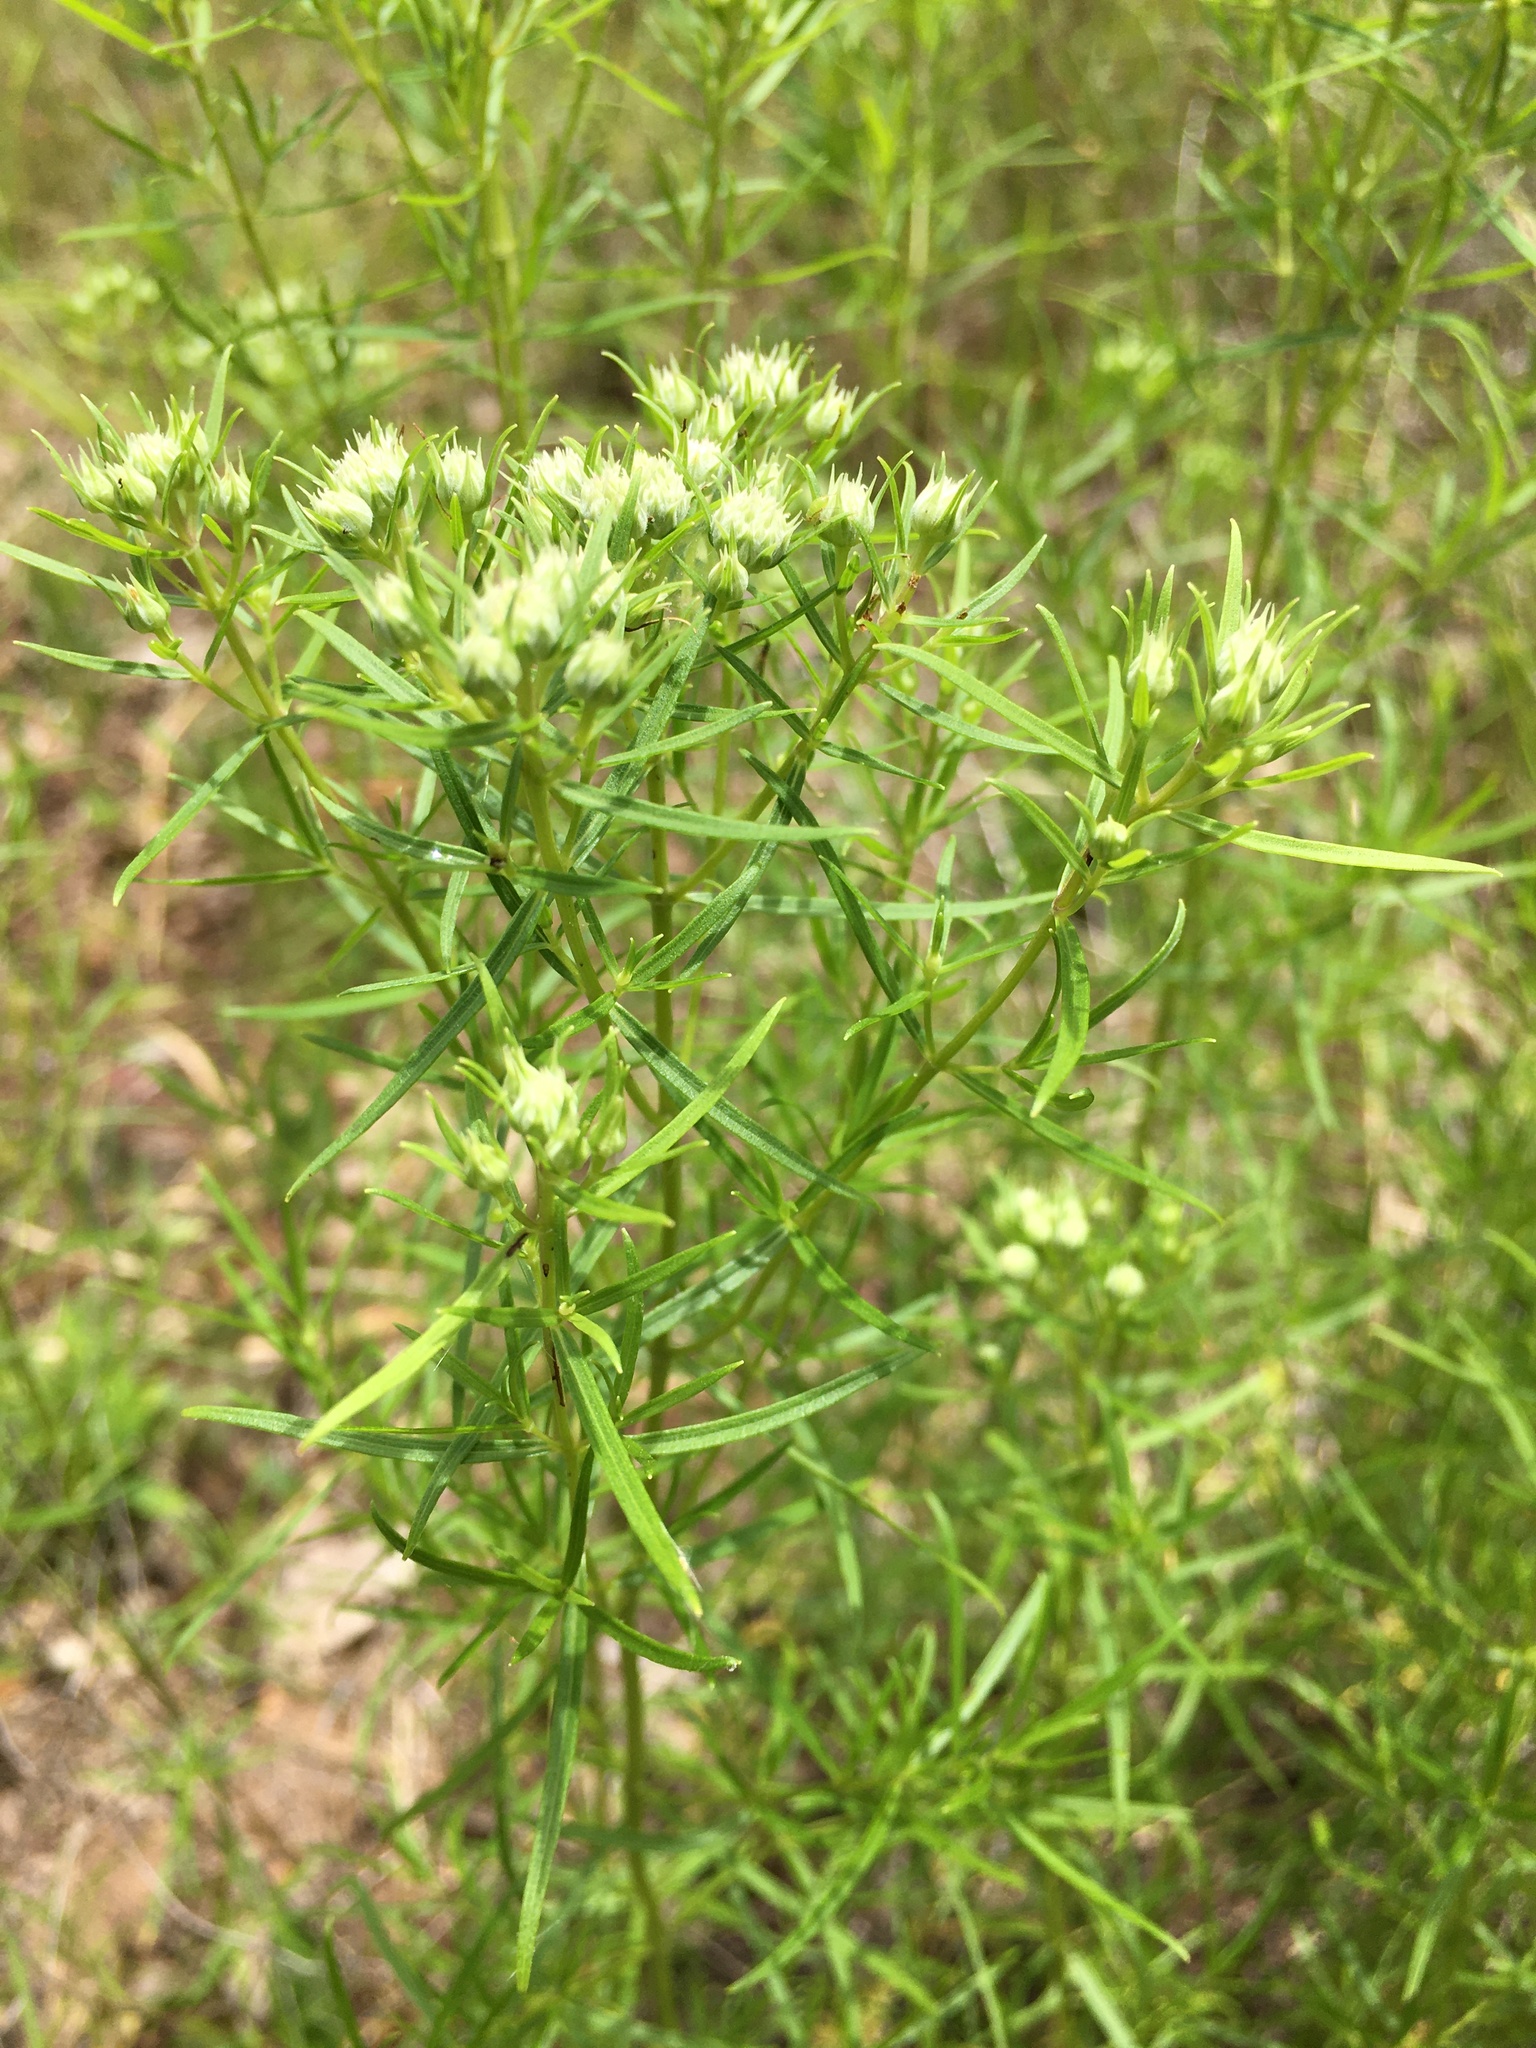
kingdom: Plantae
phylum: Tracheophyta
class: Magnoliopsida
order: Lamiales
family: Lamiaceae
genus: Pycnanthemum
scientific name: Pycnanthemum tenuifolium
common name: Narrow-leaf mountain-mint
